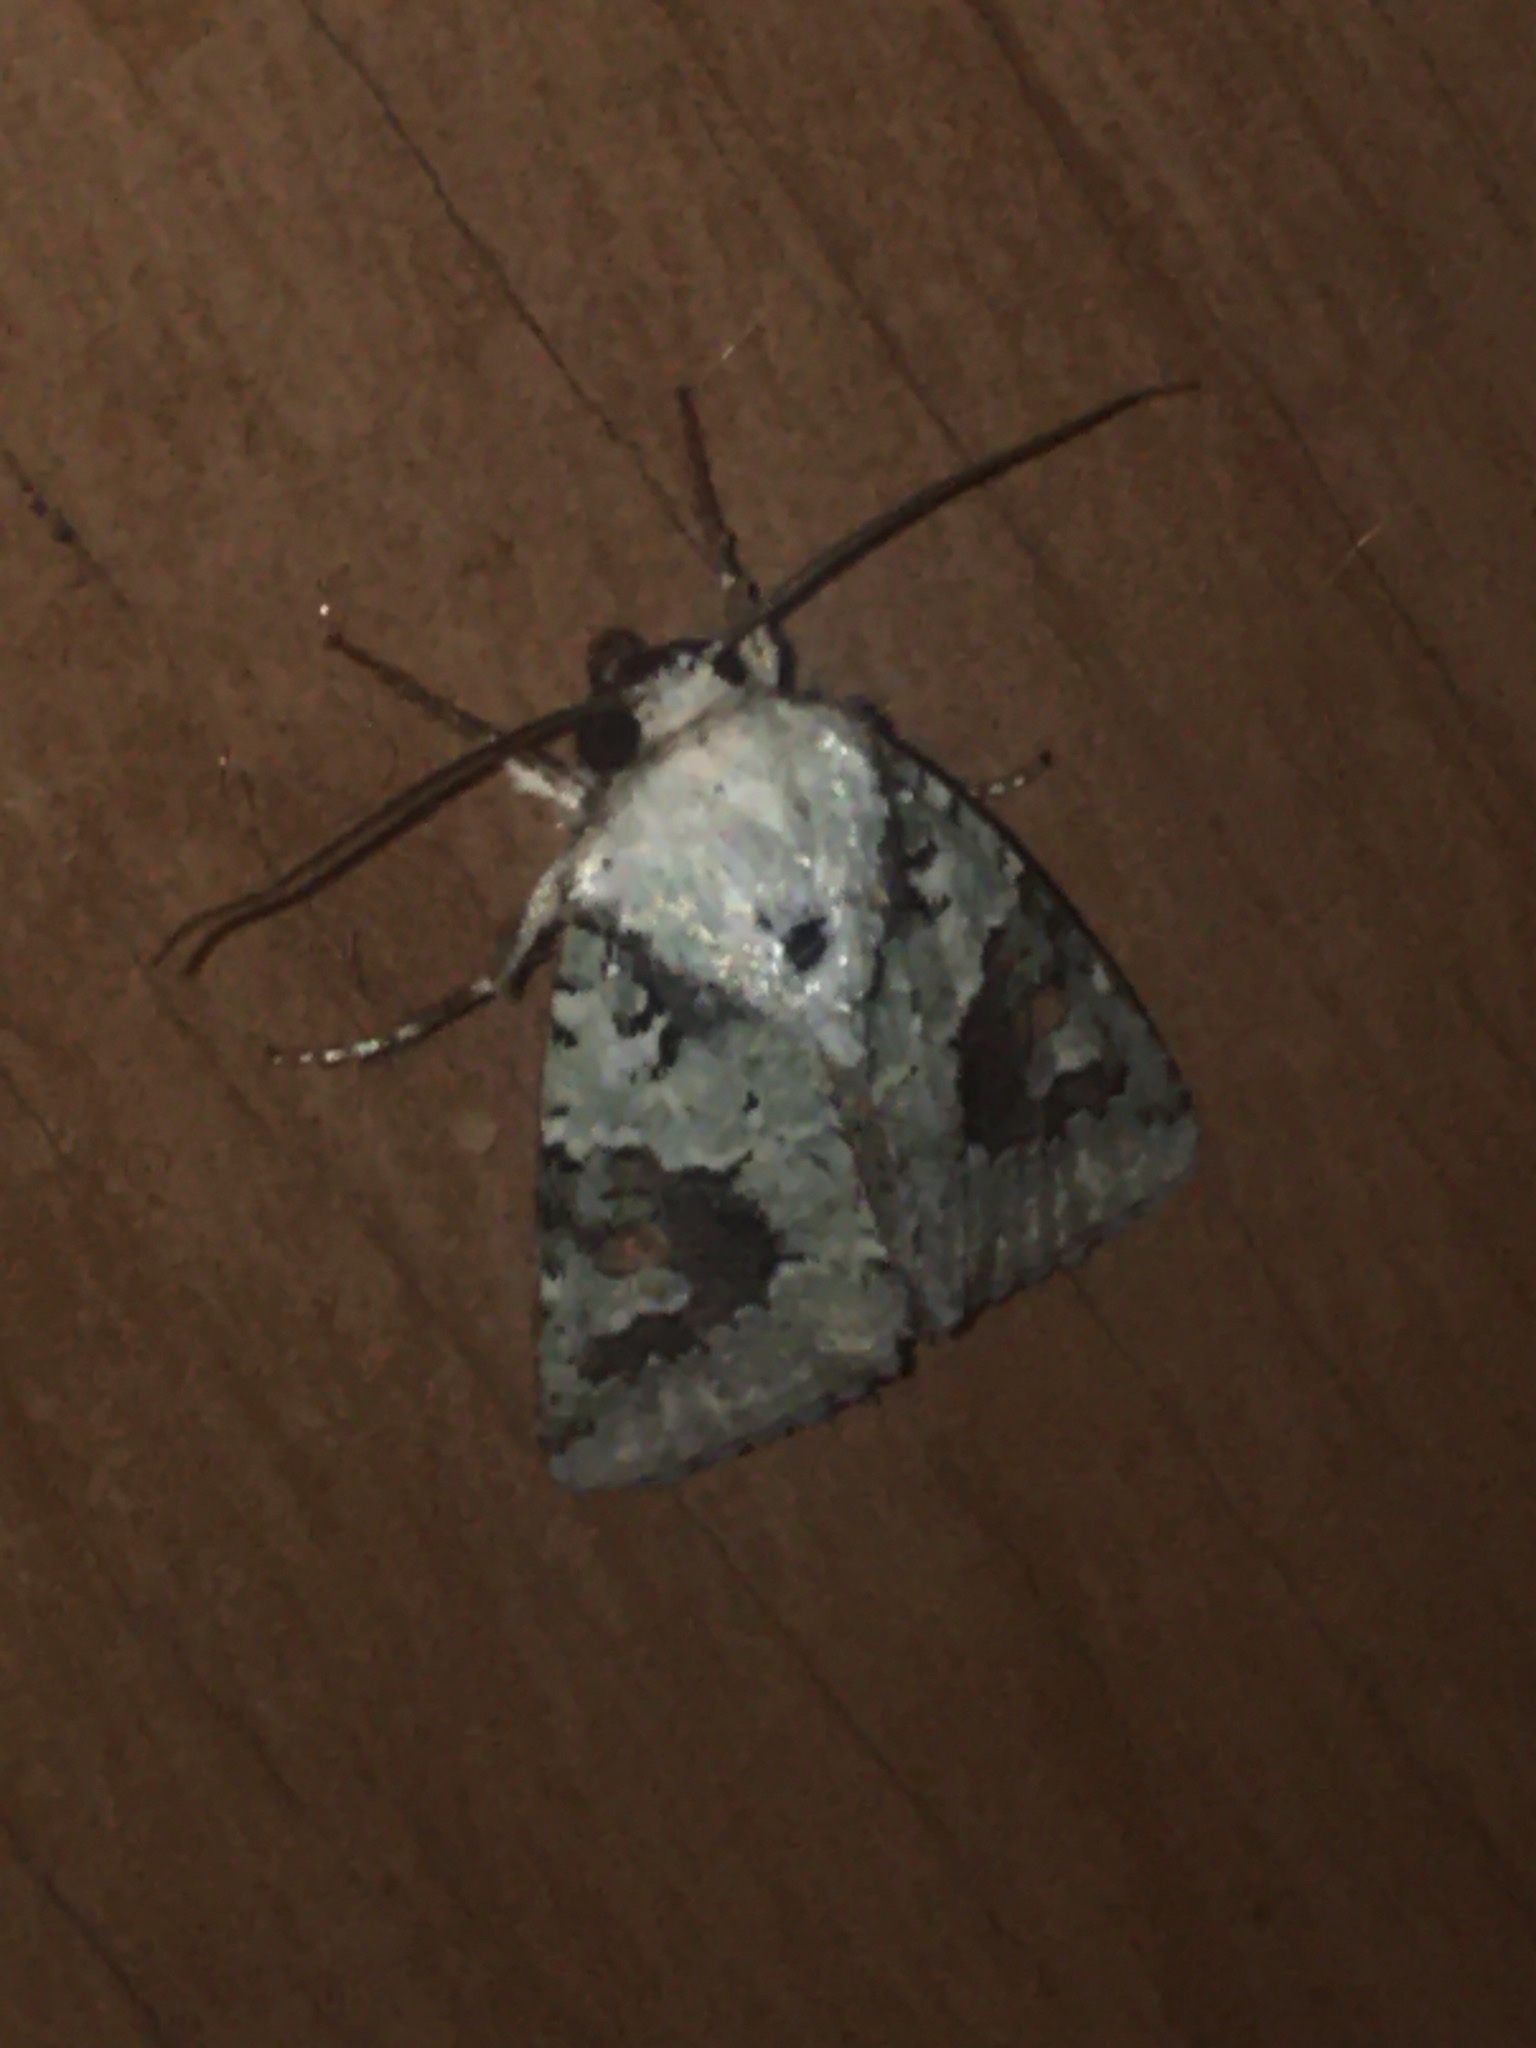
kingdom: Animalia
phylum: Arthropoda
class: Insecta
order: Lepidoptera
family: Noctuidae
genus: Lacinipolia
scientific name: Lacinipolia laudabilis
